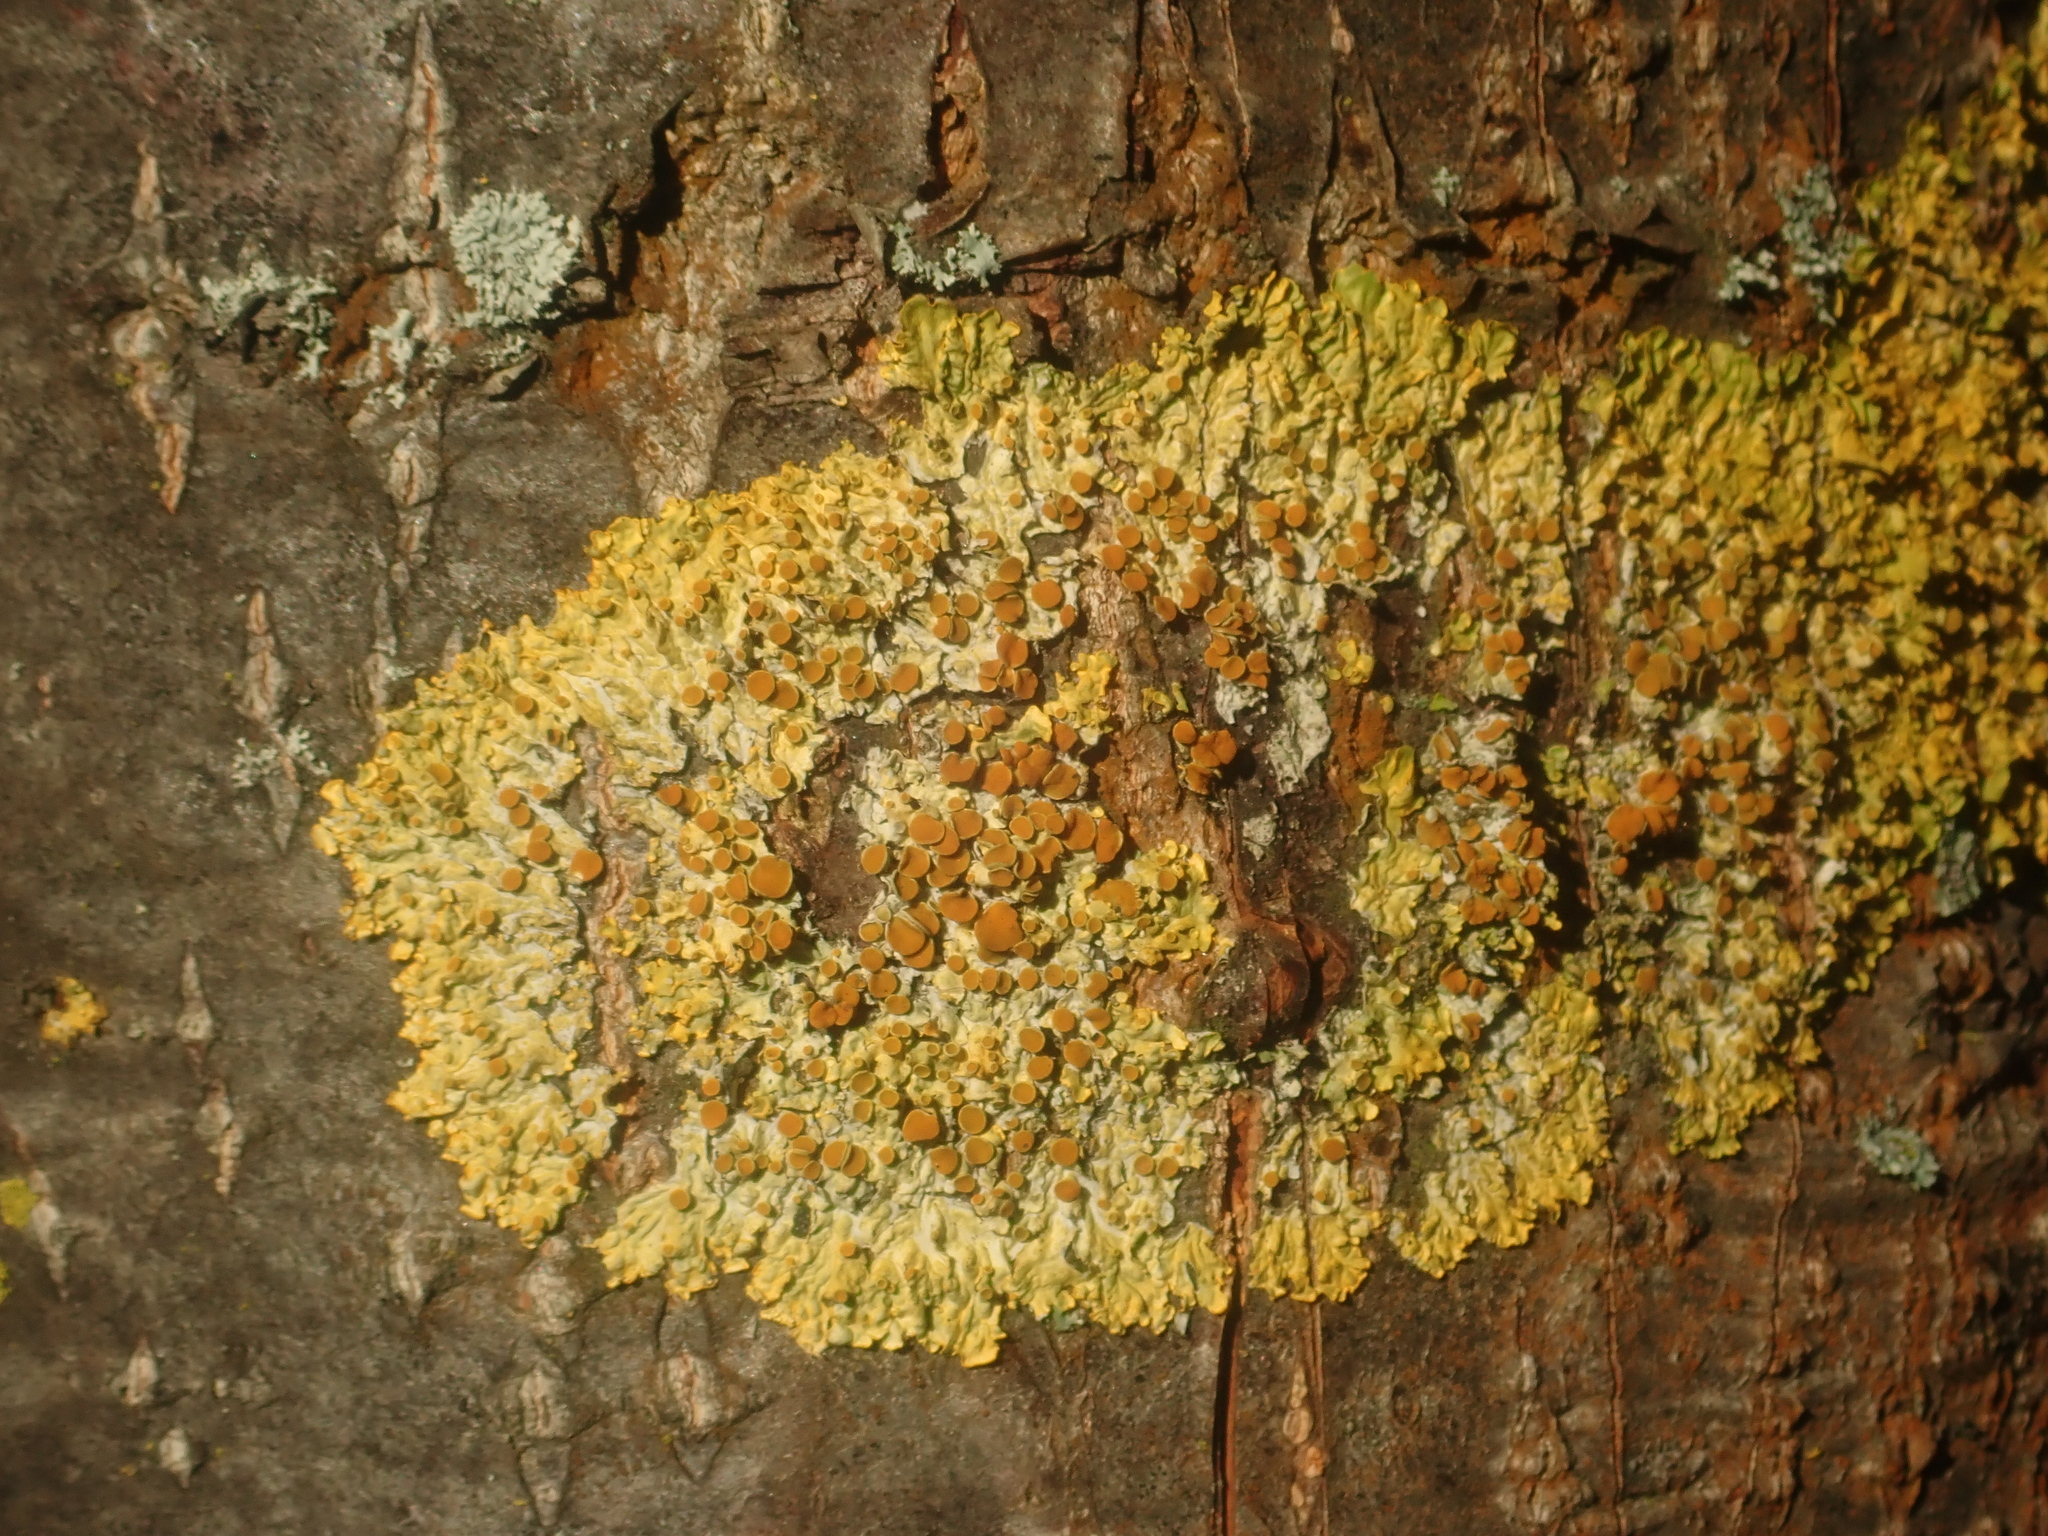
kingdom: Fungi
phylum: Ascomycota
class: Lecanoromycetes
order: Teloschistales
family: Teloschistaceae
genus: Xanthoria
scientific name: Xanthoria parietina
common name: Common orange lichen
